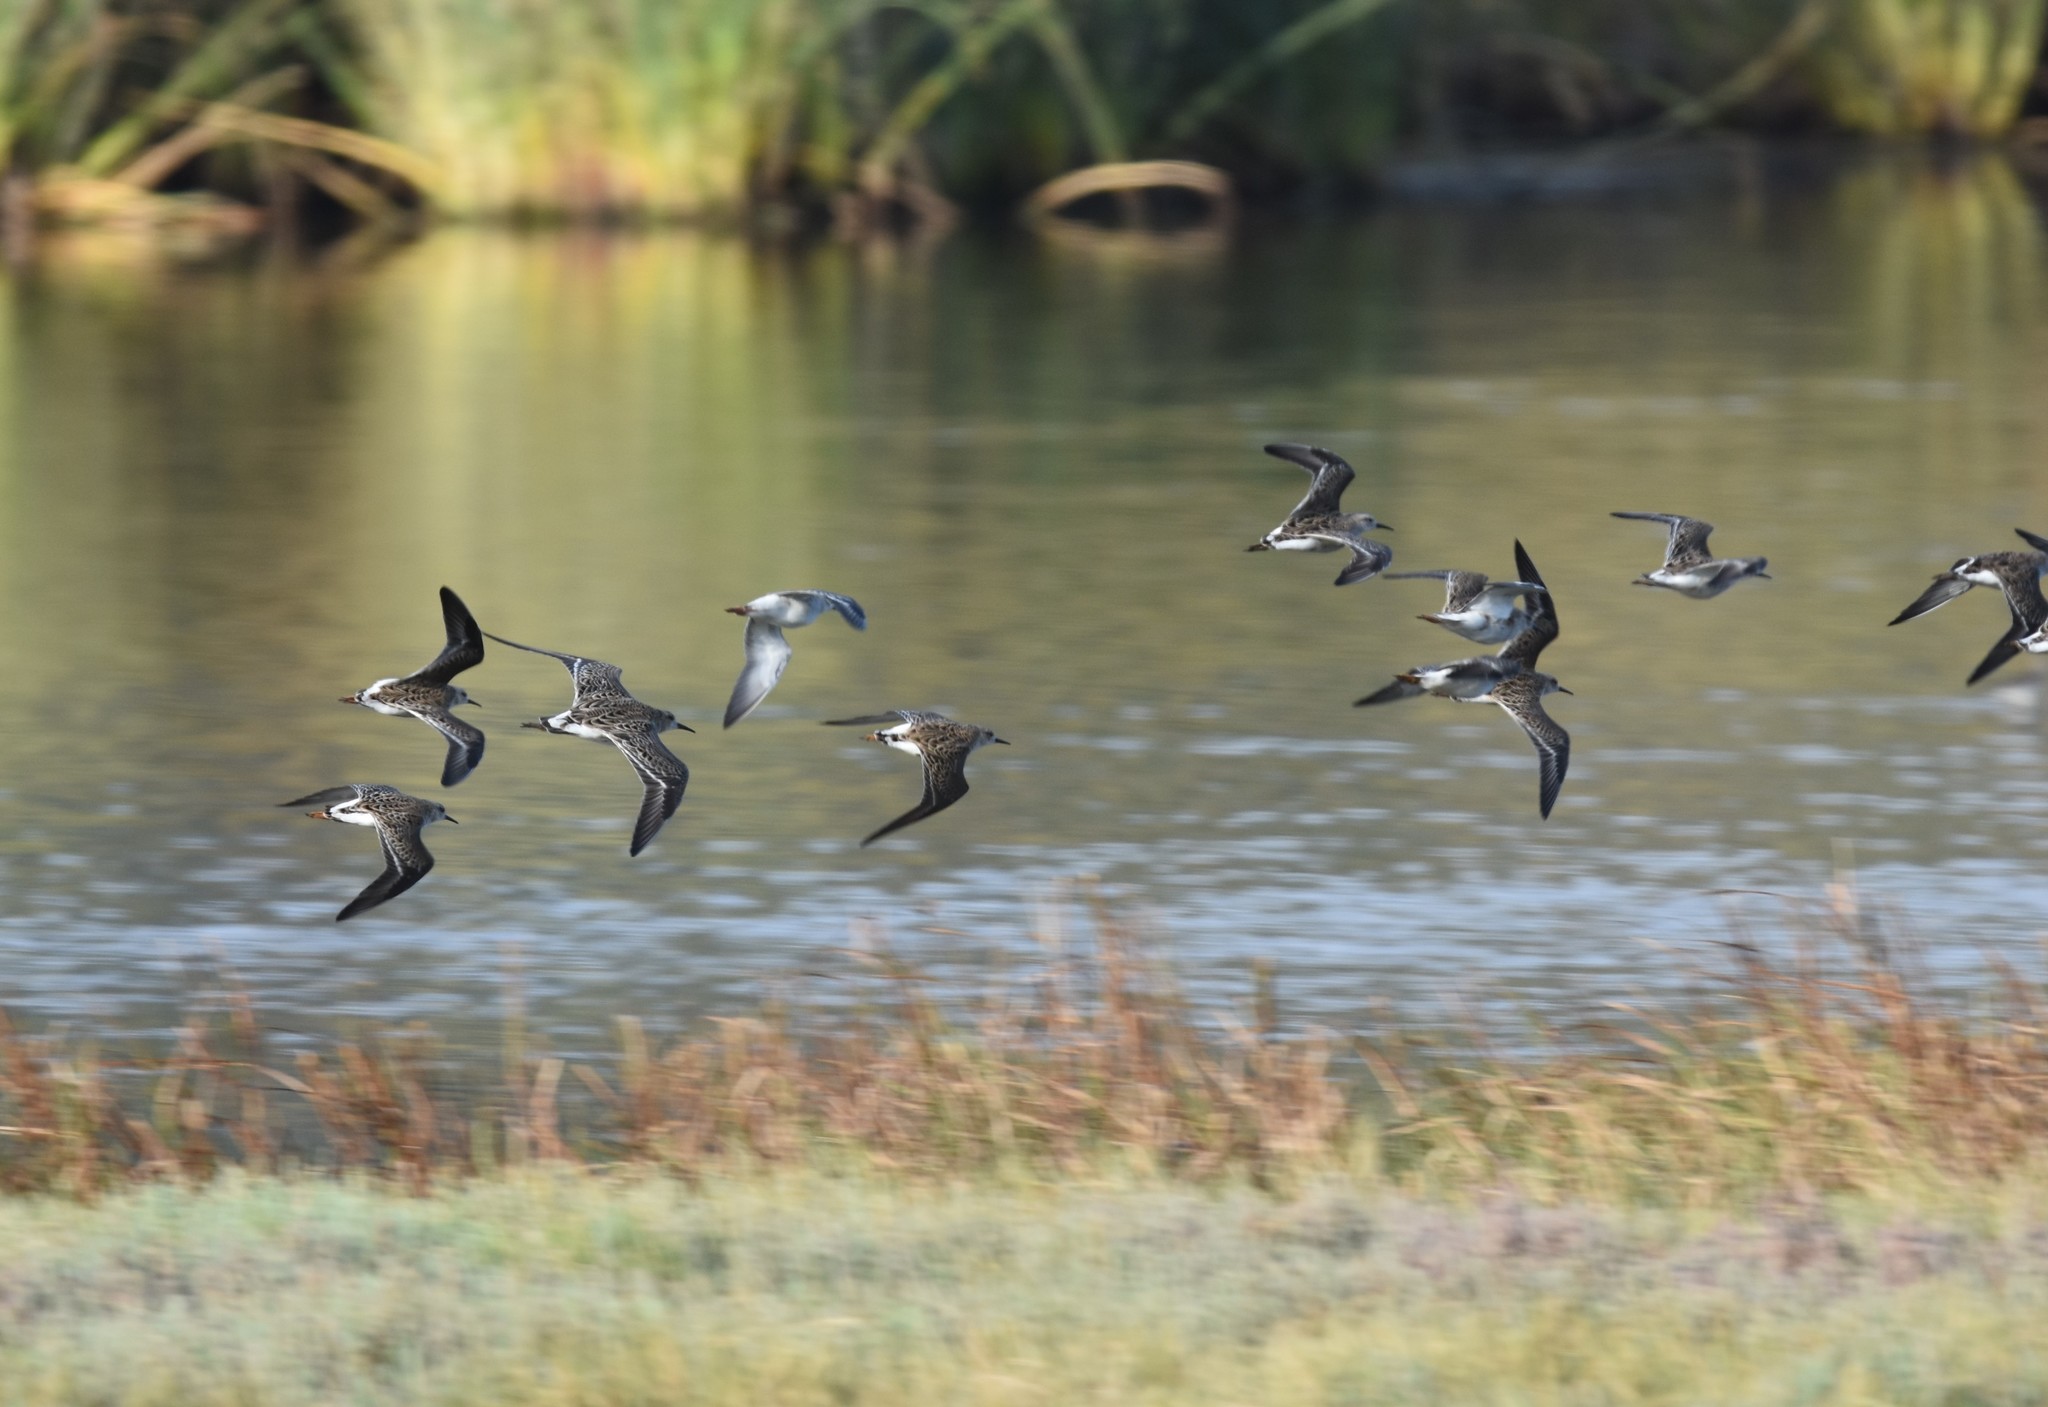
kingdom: Animalia
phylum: Chordata
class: Aves
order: Charadriiformes
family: Scolopacidae
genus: Calidris
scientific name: Calidris pugnax
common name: Ruff
